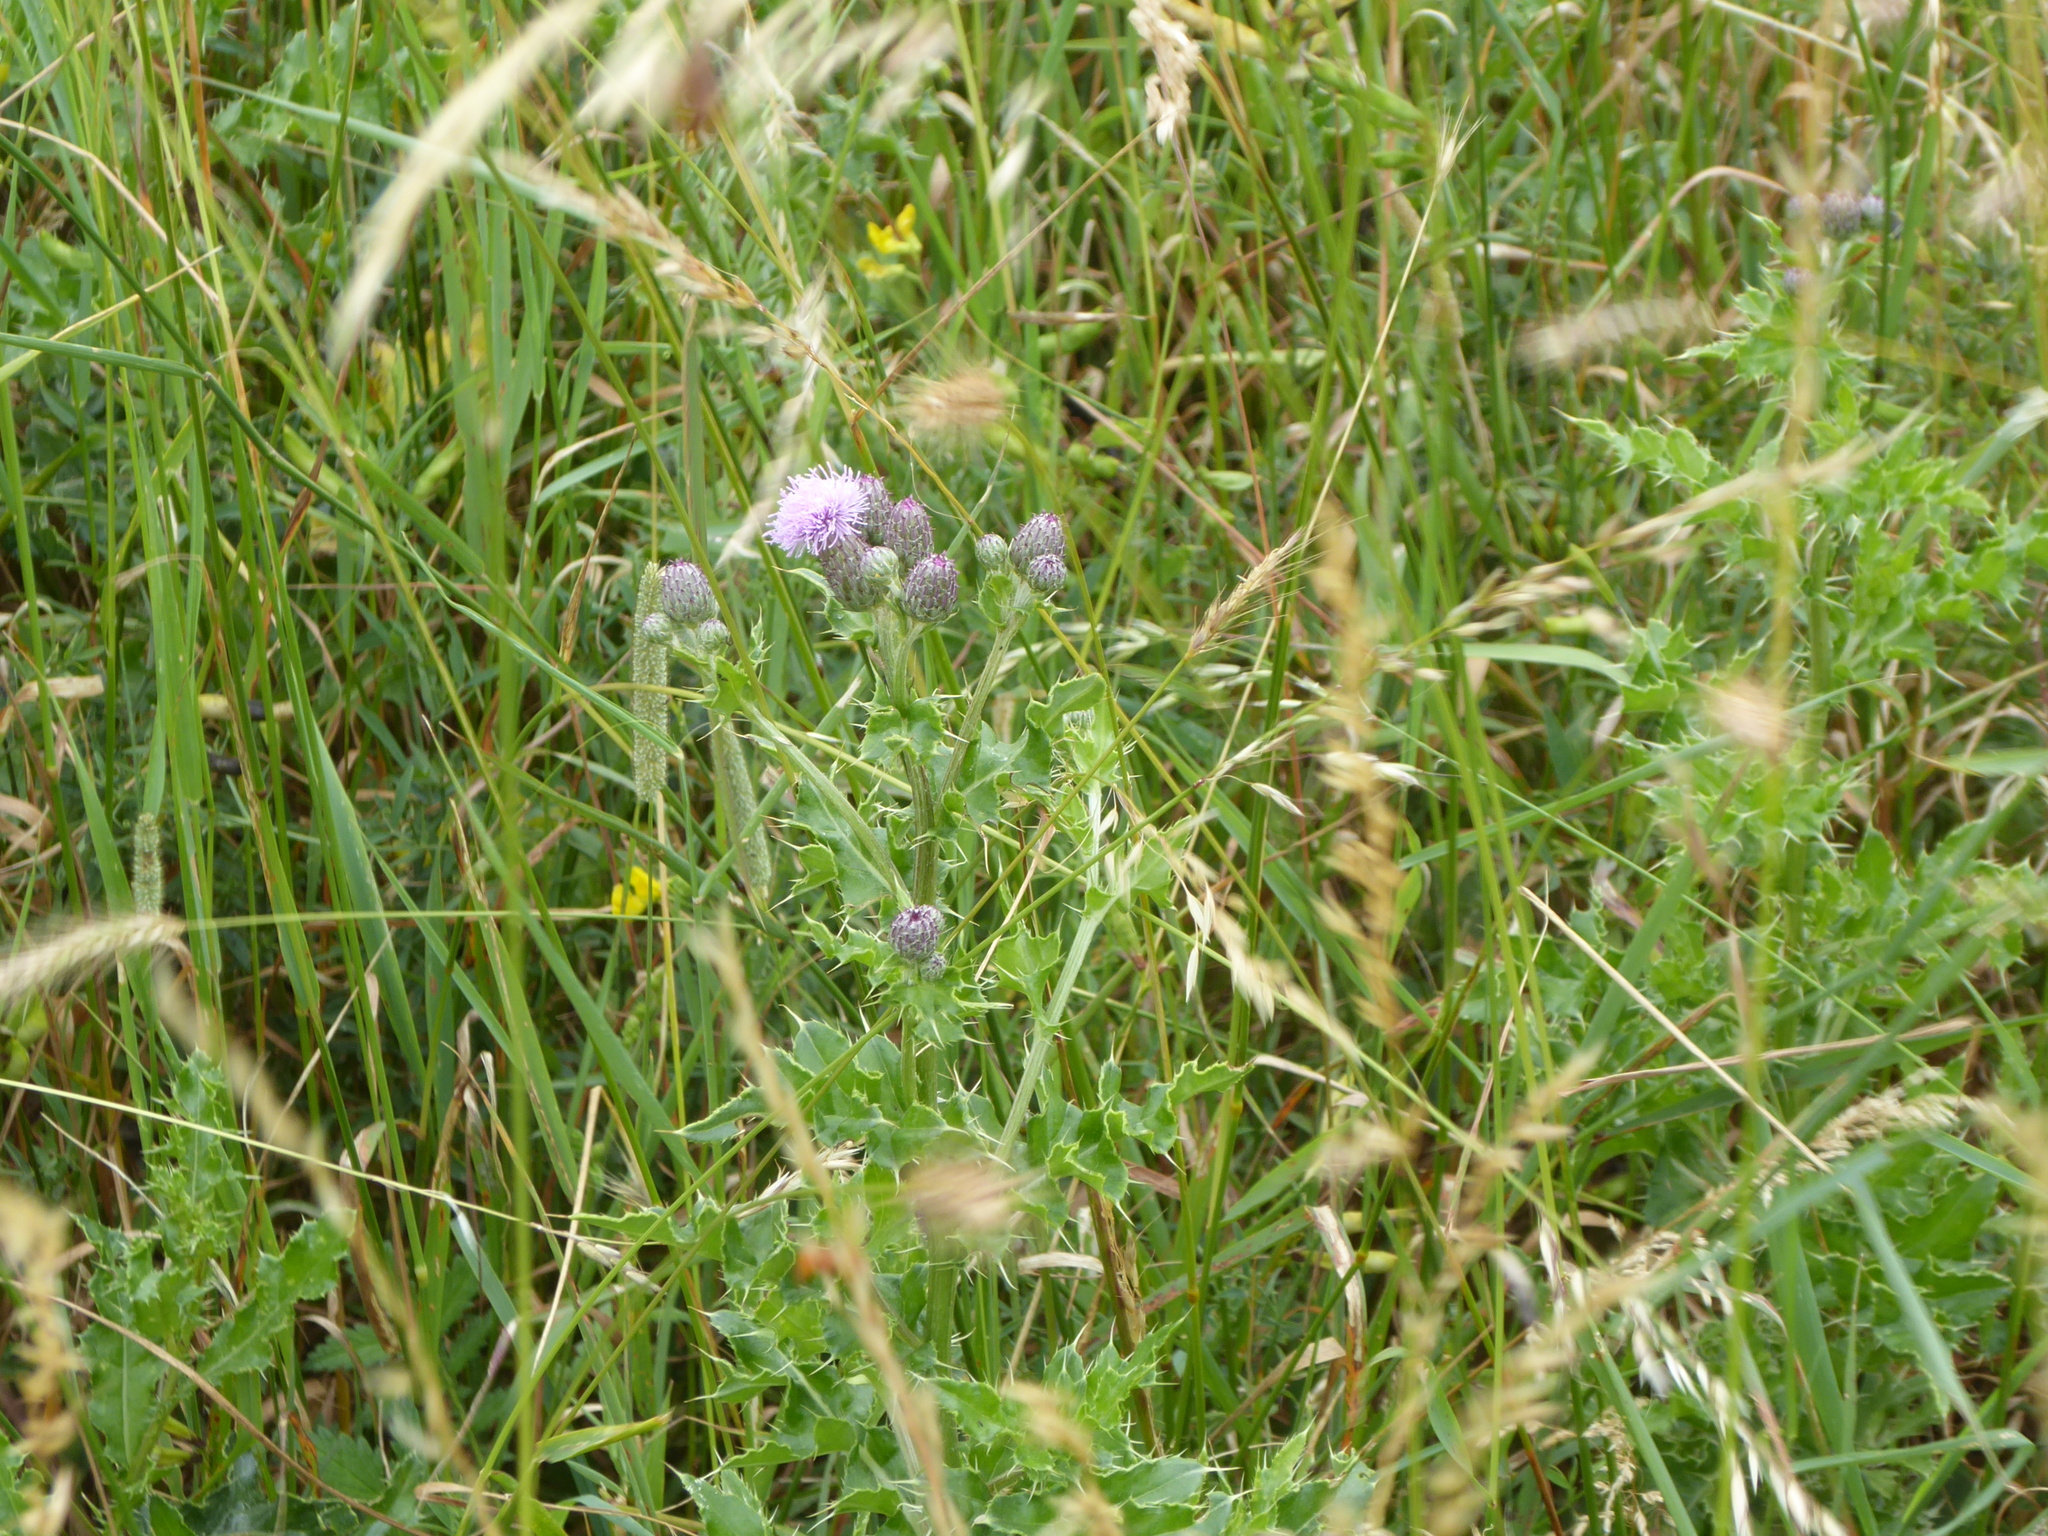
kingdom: Plantae
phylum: Tracheophyta
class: Magnoliopsida
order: Asterales
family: Asteraceae
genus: Cirsium
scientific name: Cirsium arvense
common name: Creeping thistle
